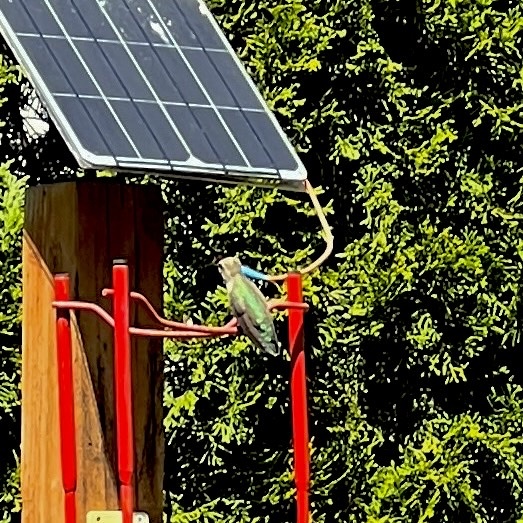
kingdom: Animalia
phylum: Chordata
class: Aves
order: Apodiformes
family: Trochilidae
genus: Calypte
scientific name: Calypte anna
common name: Anna's hummingbird
